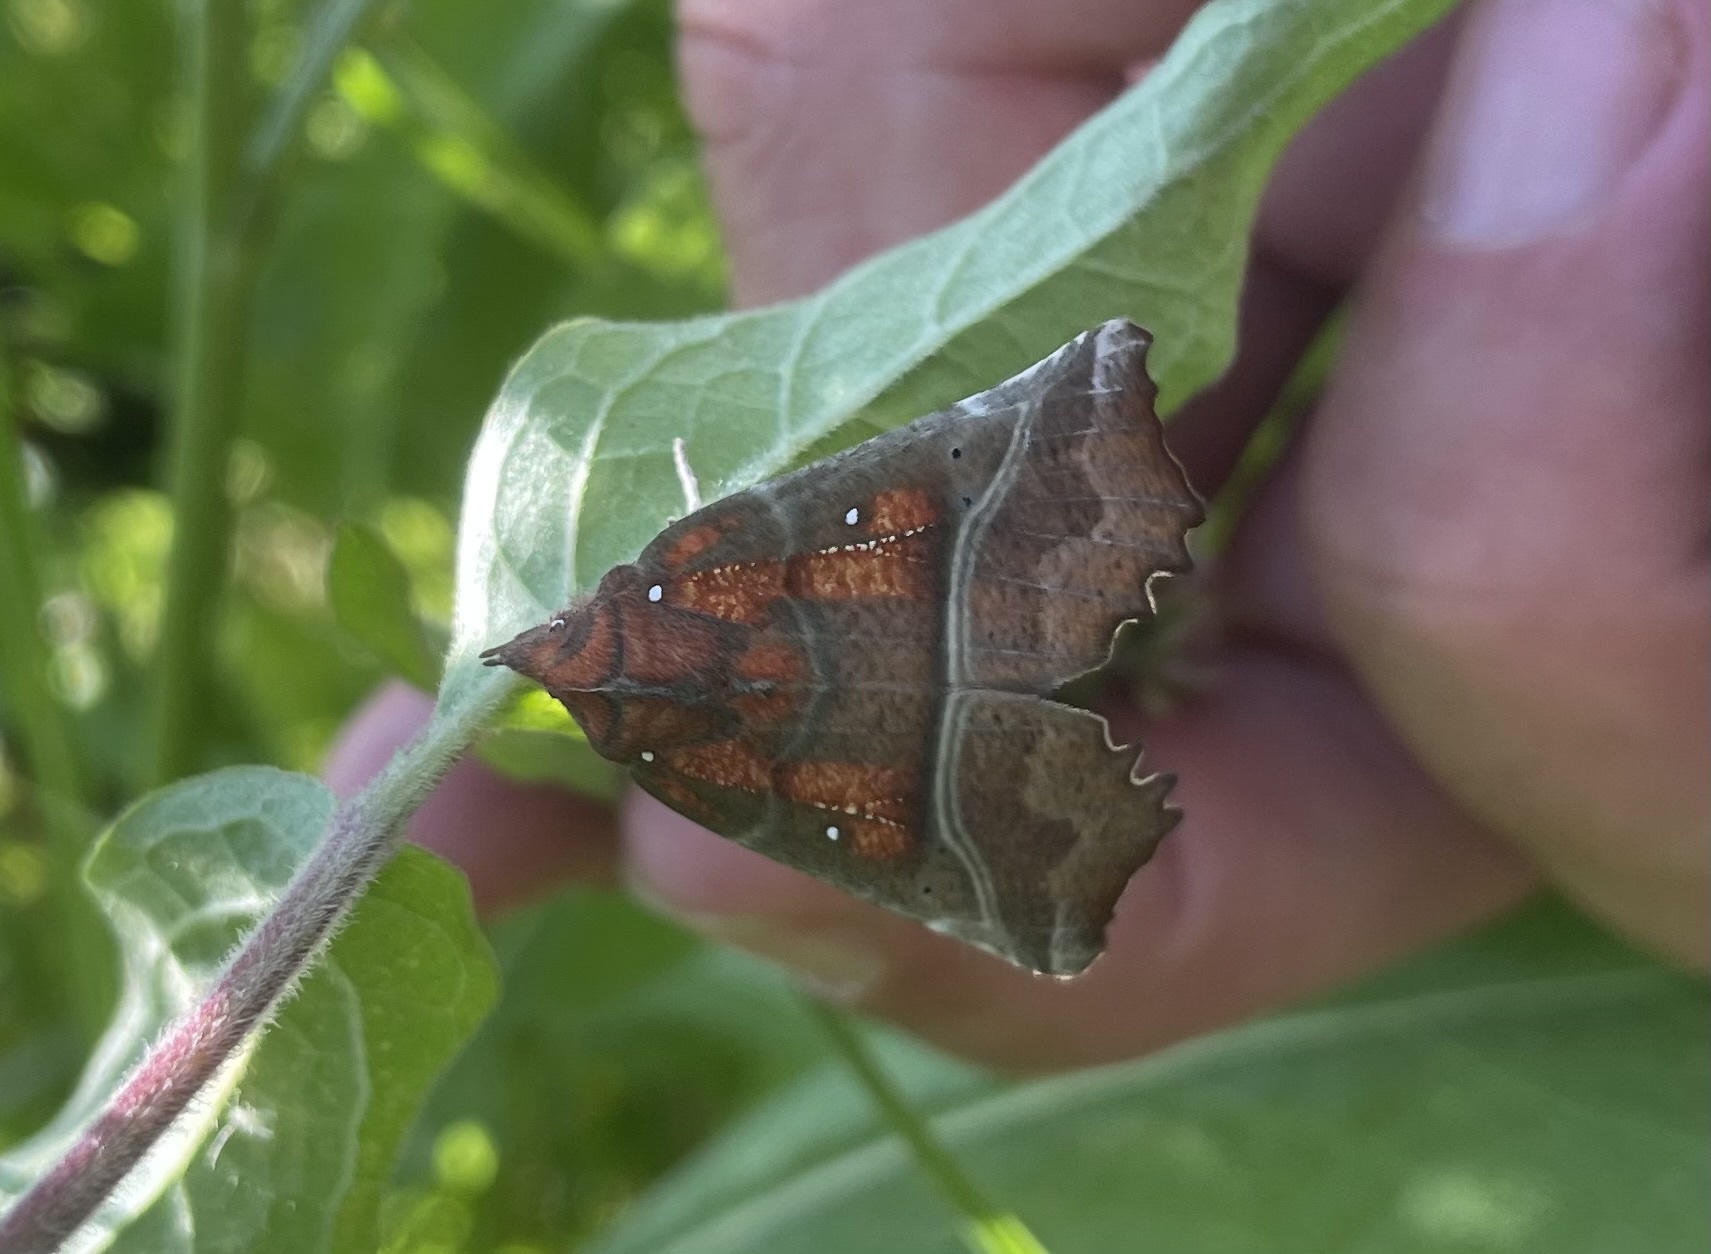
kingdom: Animalia
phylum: Arthropoda
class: Insecta
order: Lepidoptera
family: Erebidae
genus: Scoliopteryx
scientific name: Scoliopteryx libatrix
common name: Herald
